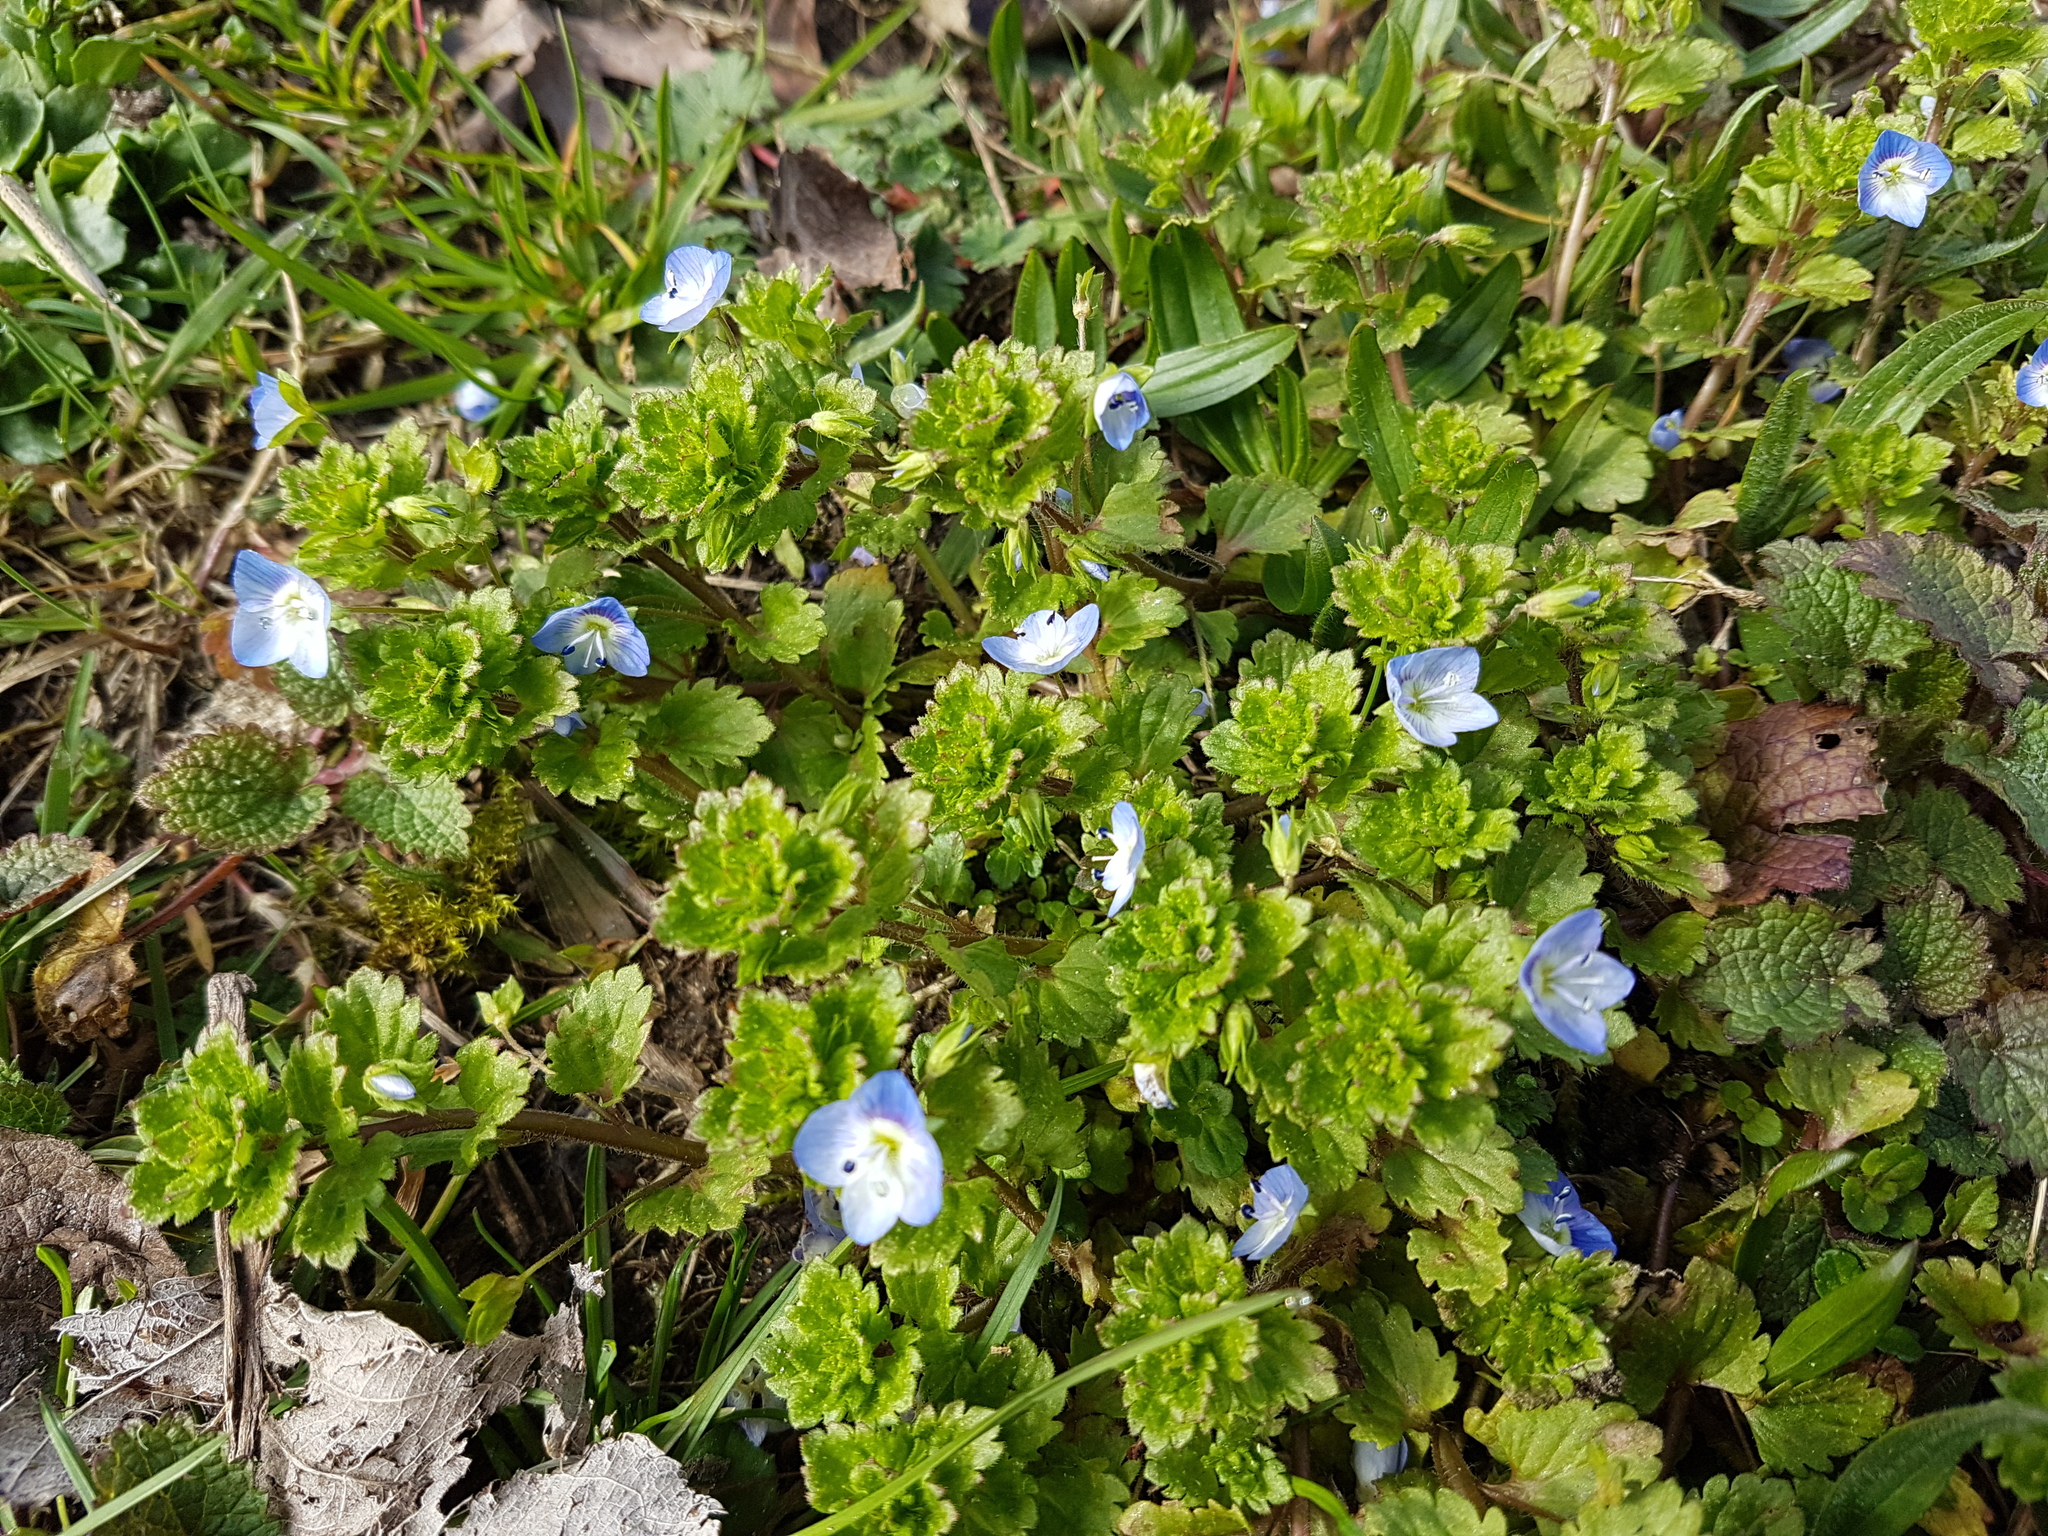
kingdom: Plantae
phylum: Tracheophyta
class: Magnoliopsida
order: Lamiales
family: Plantaginaceae
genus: Veronica
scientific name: Veronica persica
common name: Common field-speedwell
